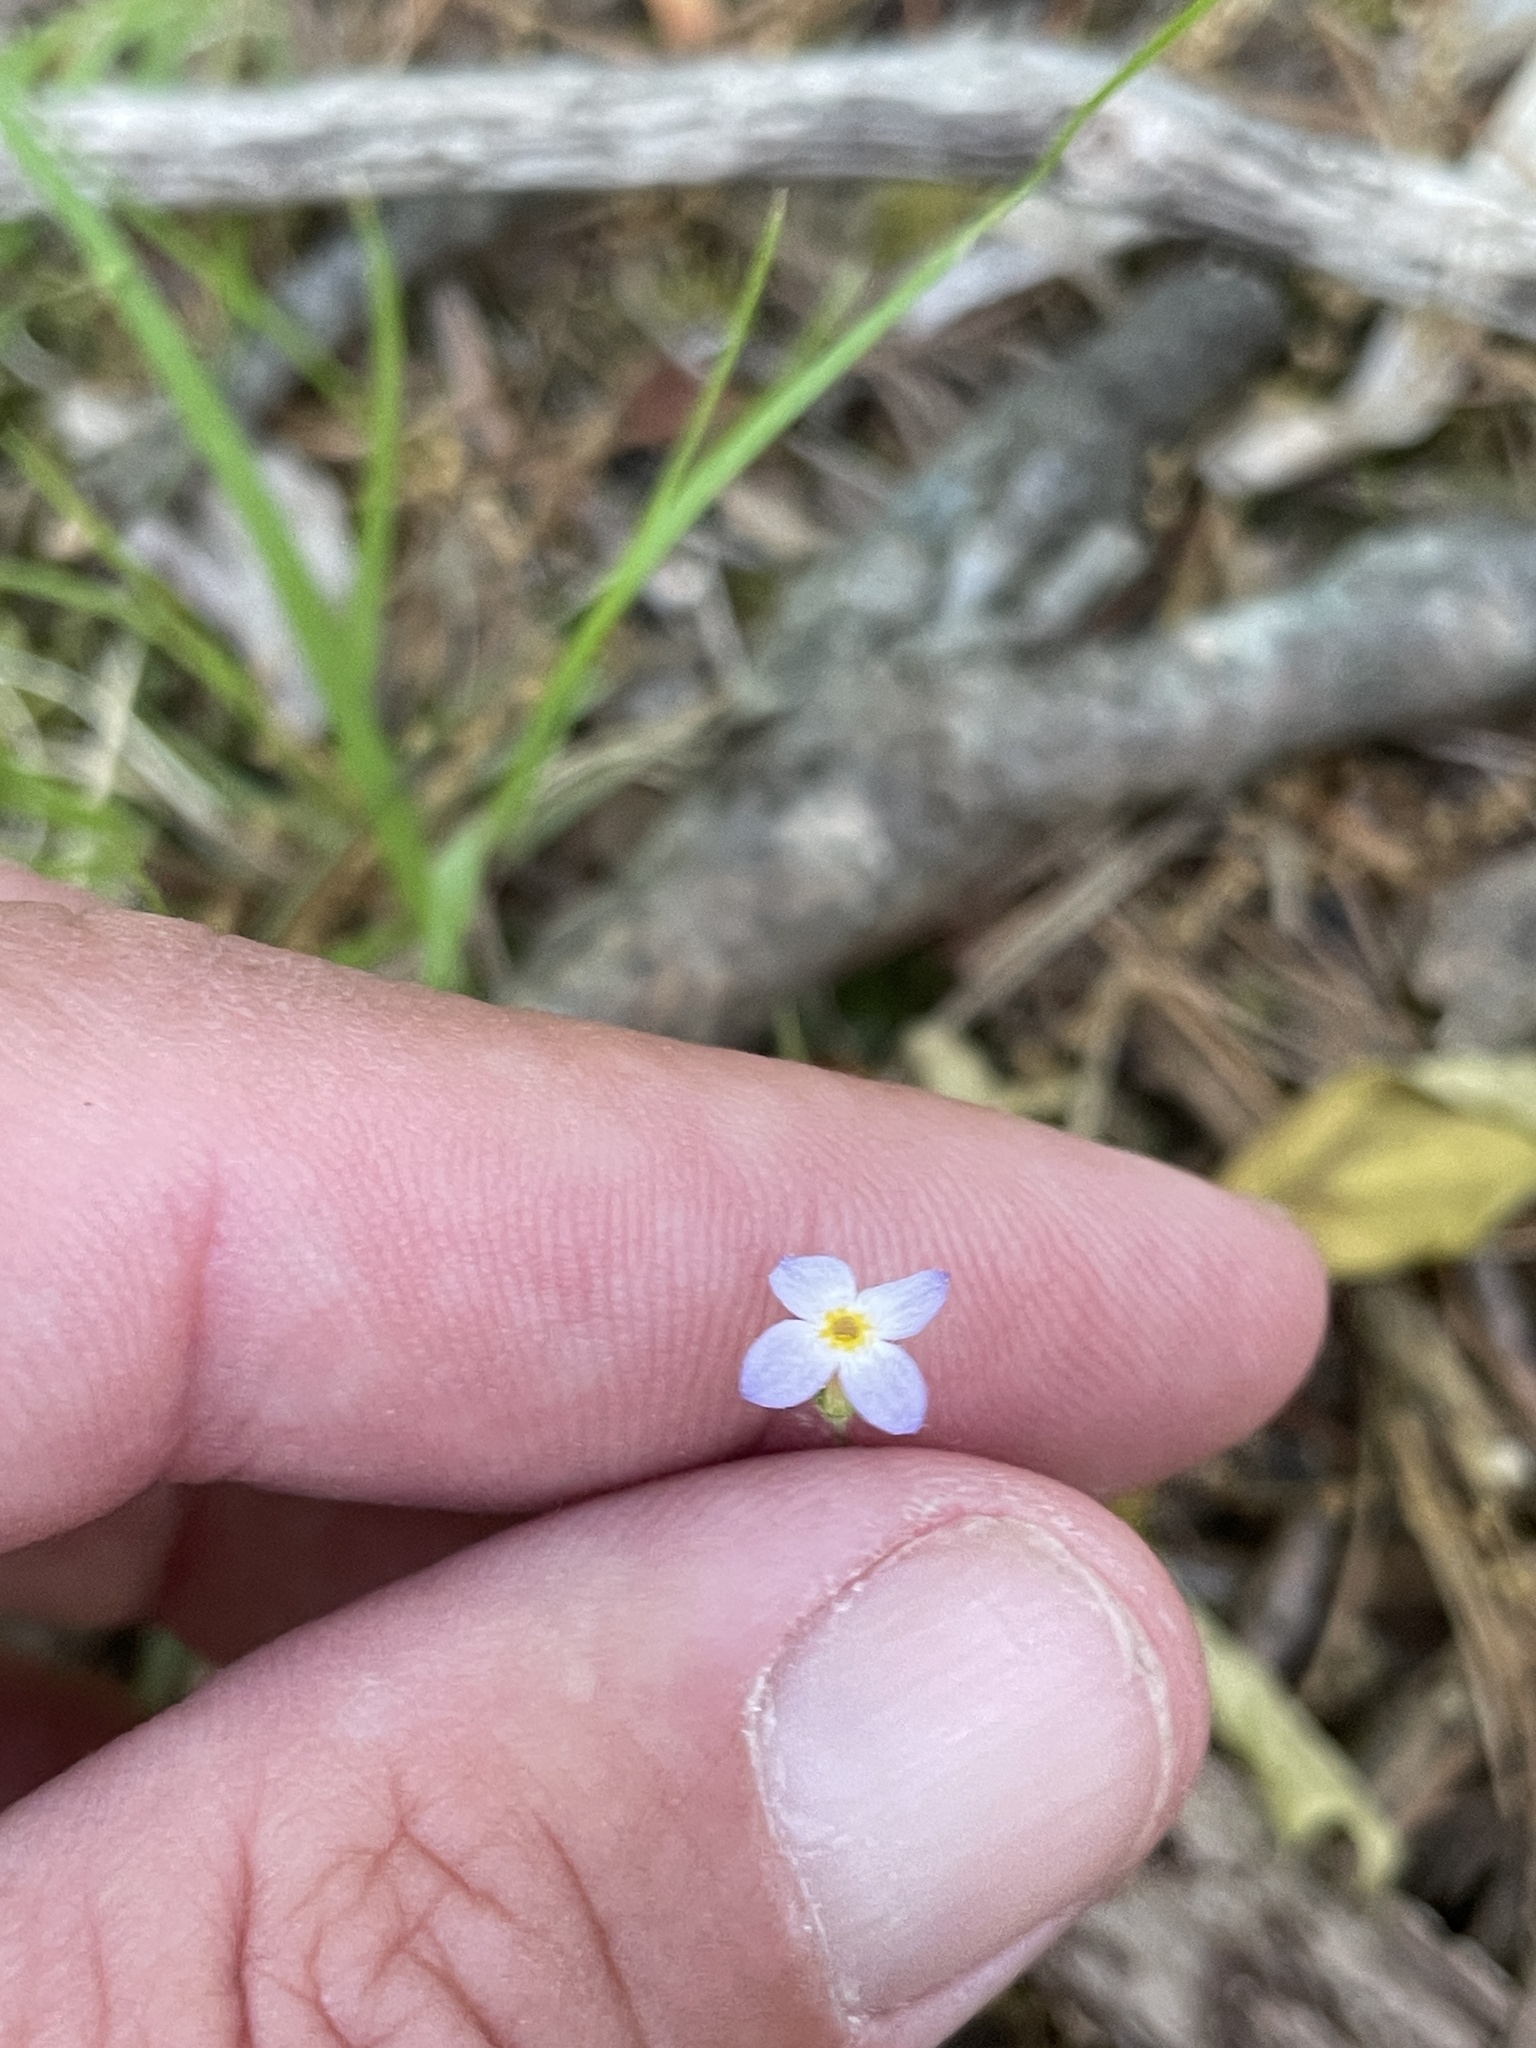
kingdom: Plantae
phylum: Tracheophyta
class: Magnoliopsida
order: Gentianales
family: Rubiaceae
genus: Houstonia
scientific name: Houstonia caerulea
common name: Bluets
